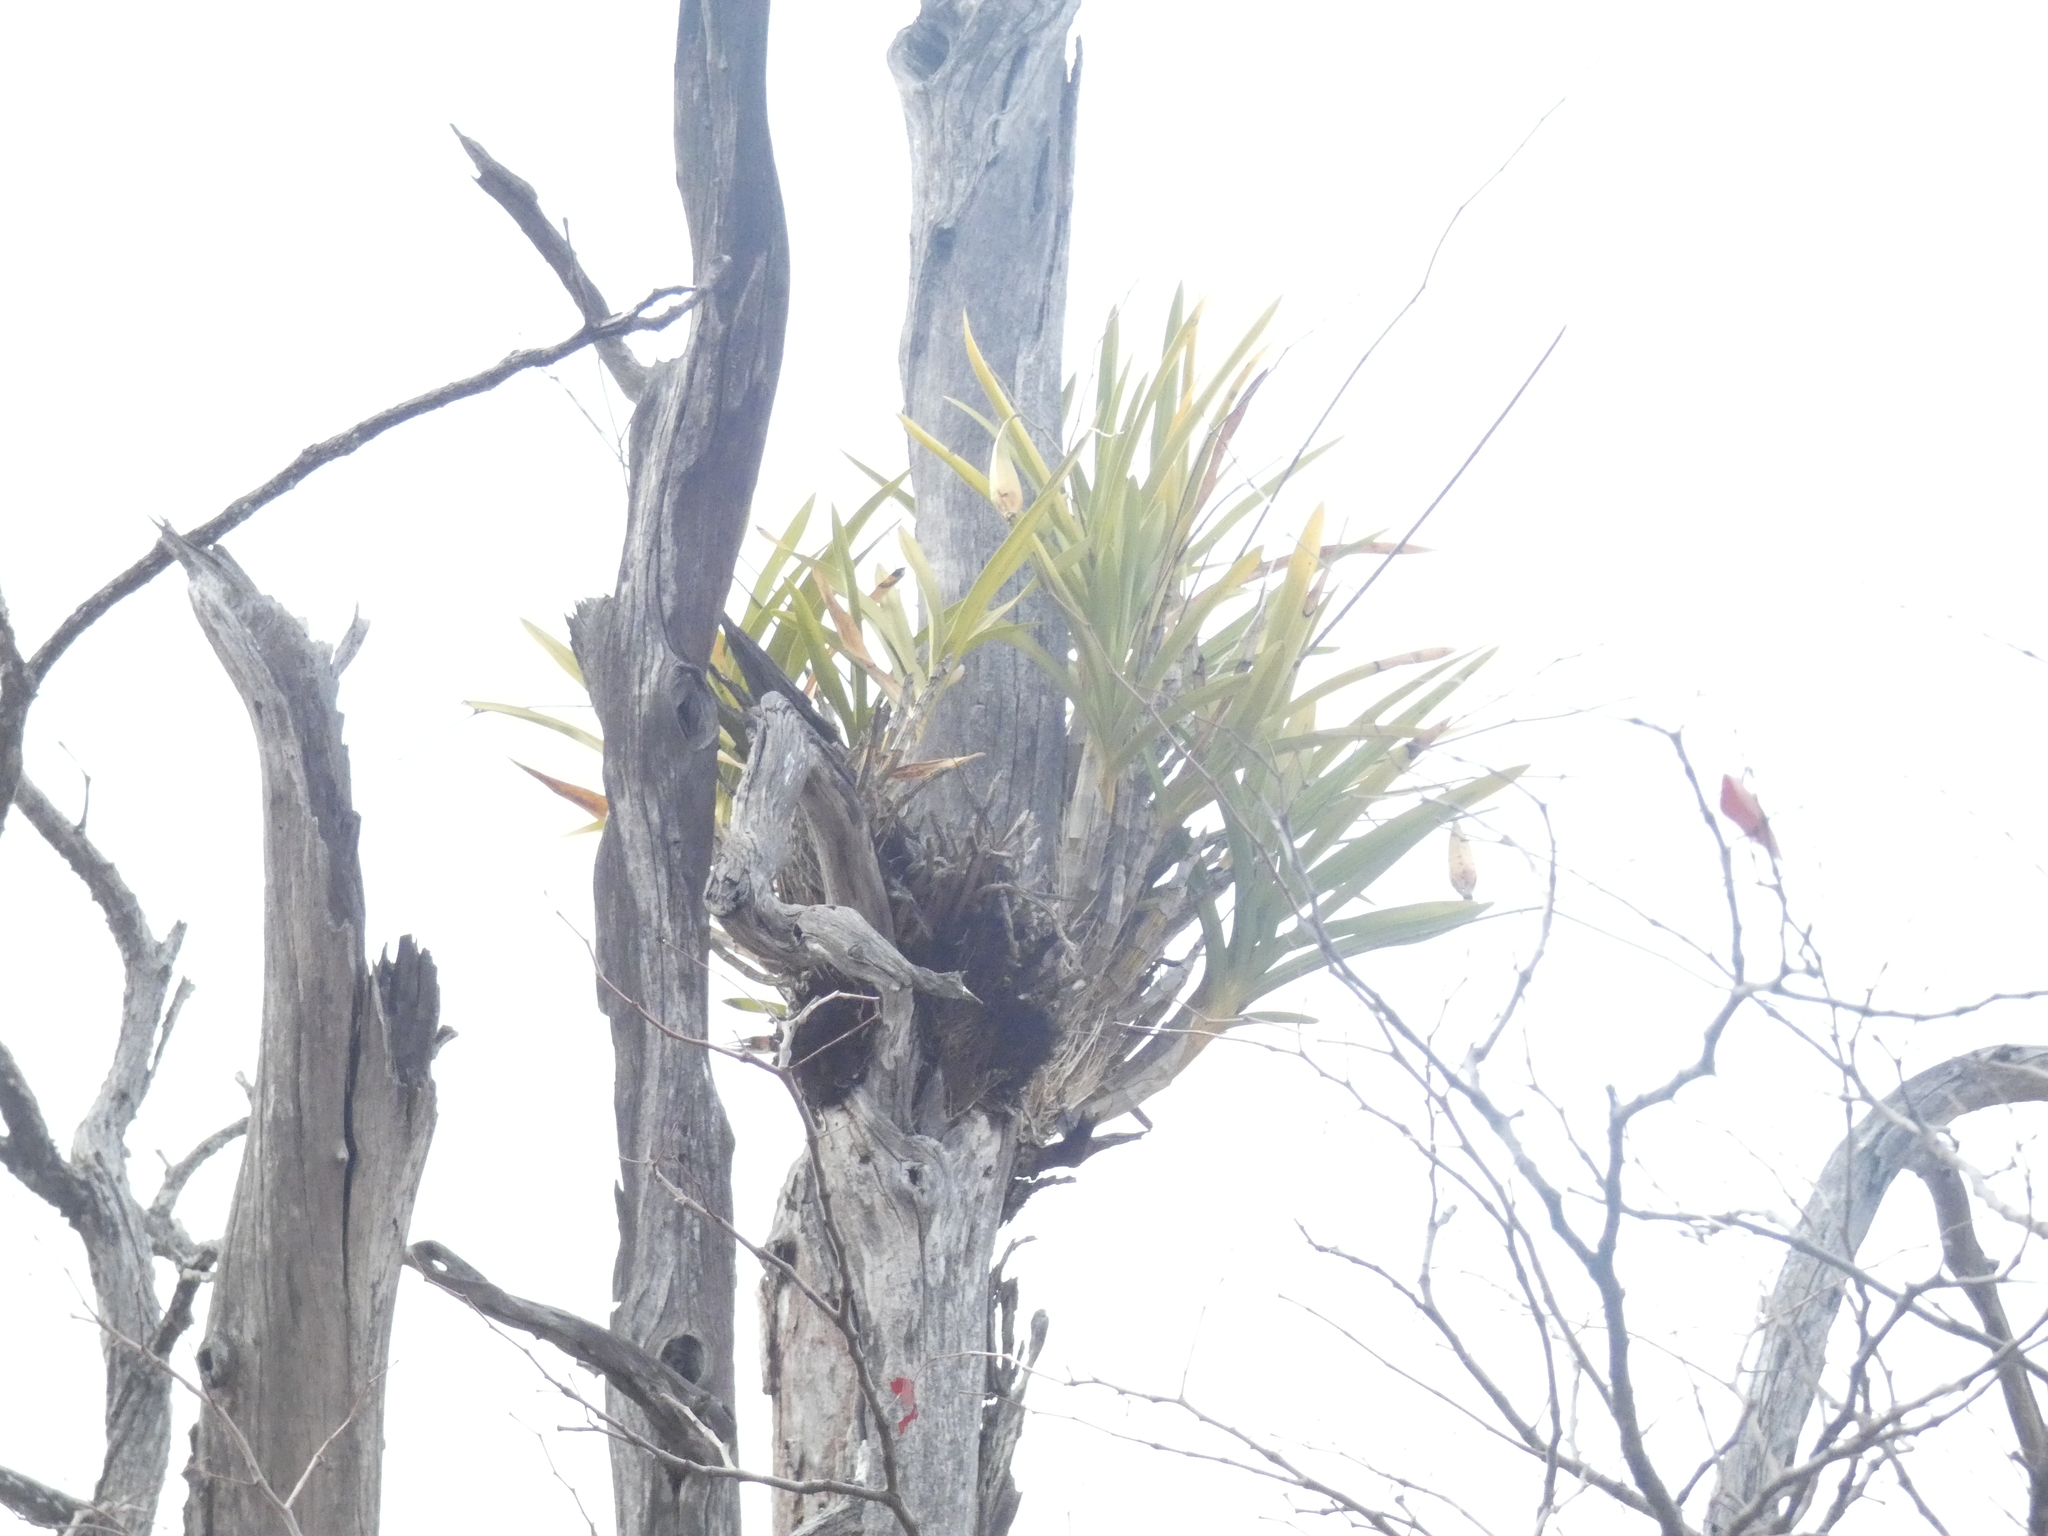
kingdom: Plantae
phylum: Tracheophyta
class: Liliopsida
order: Asparagales
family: Orchidaceae
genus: Ansellia
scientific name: Ansellia africana
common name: African ansellia
